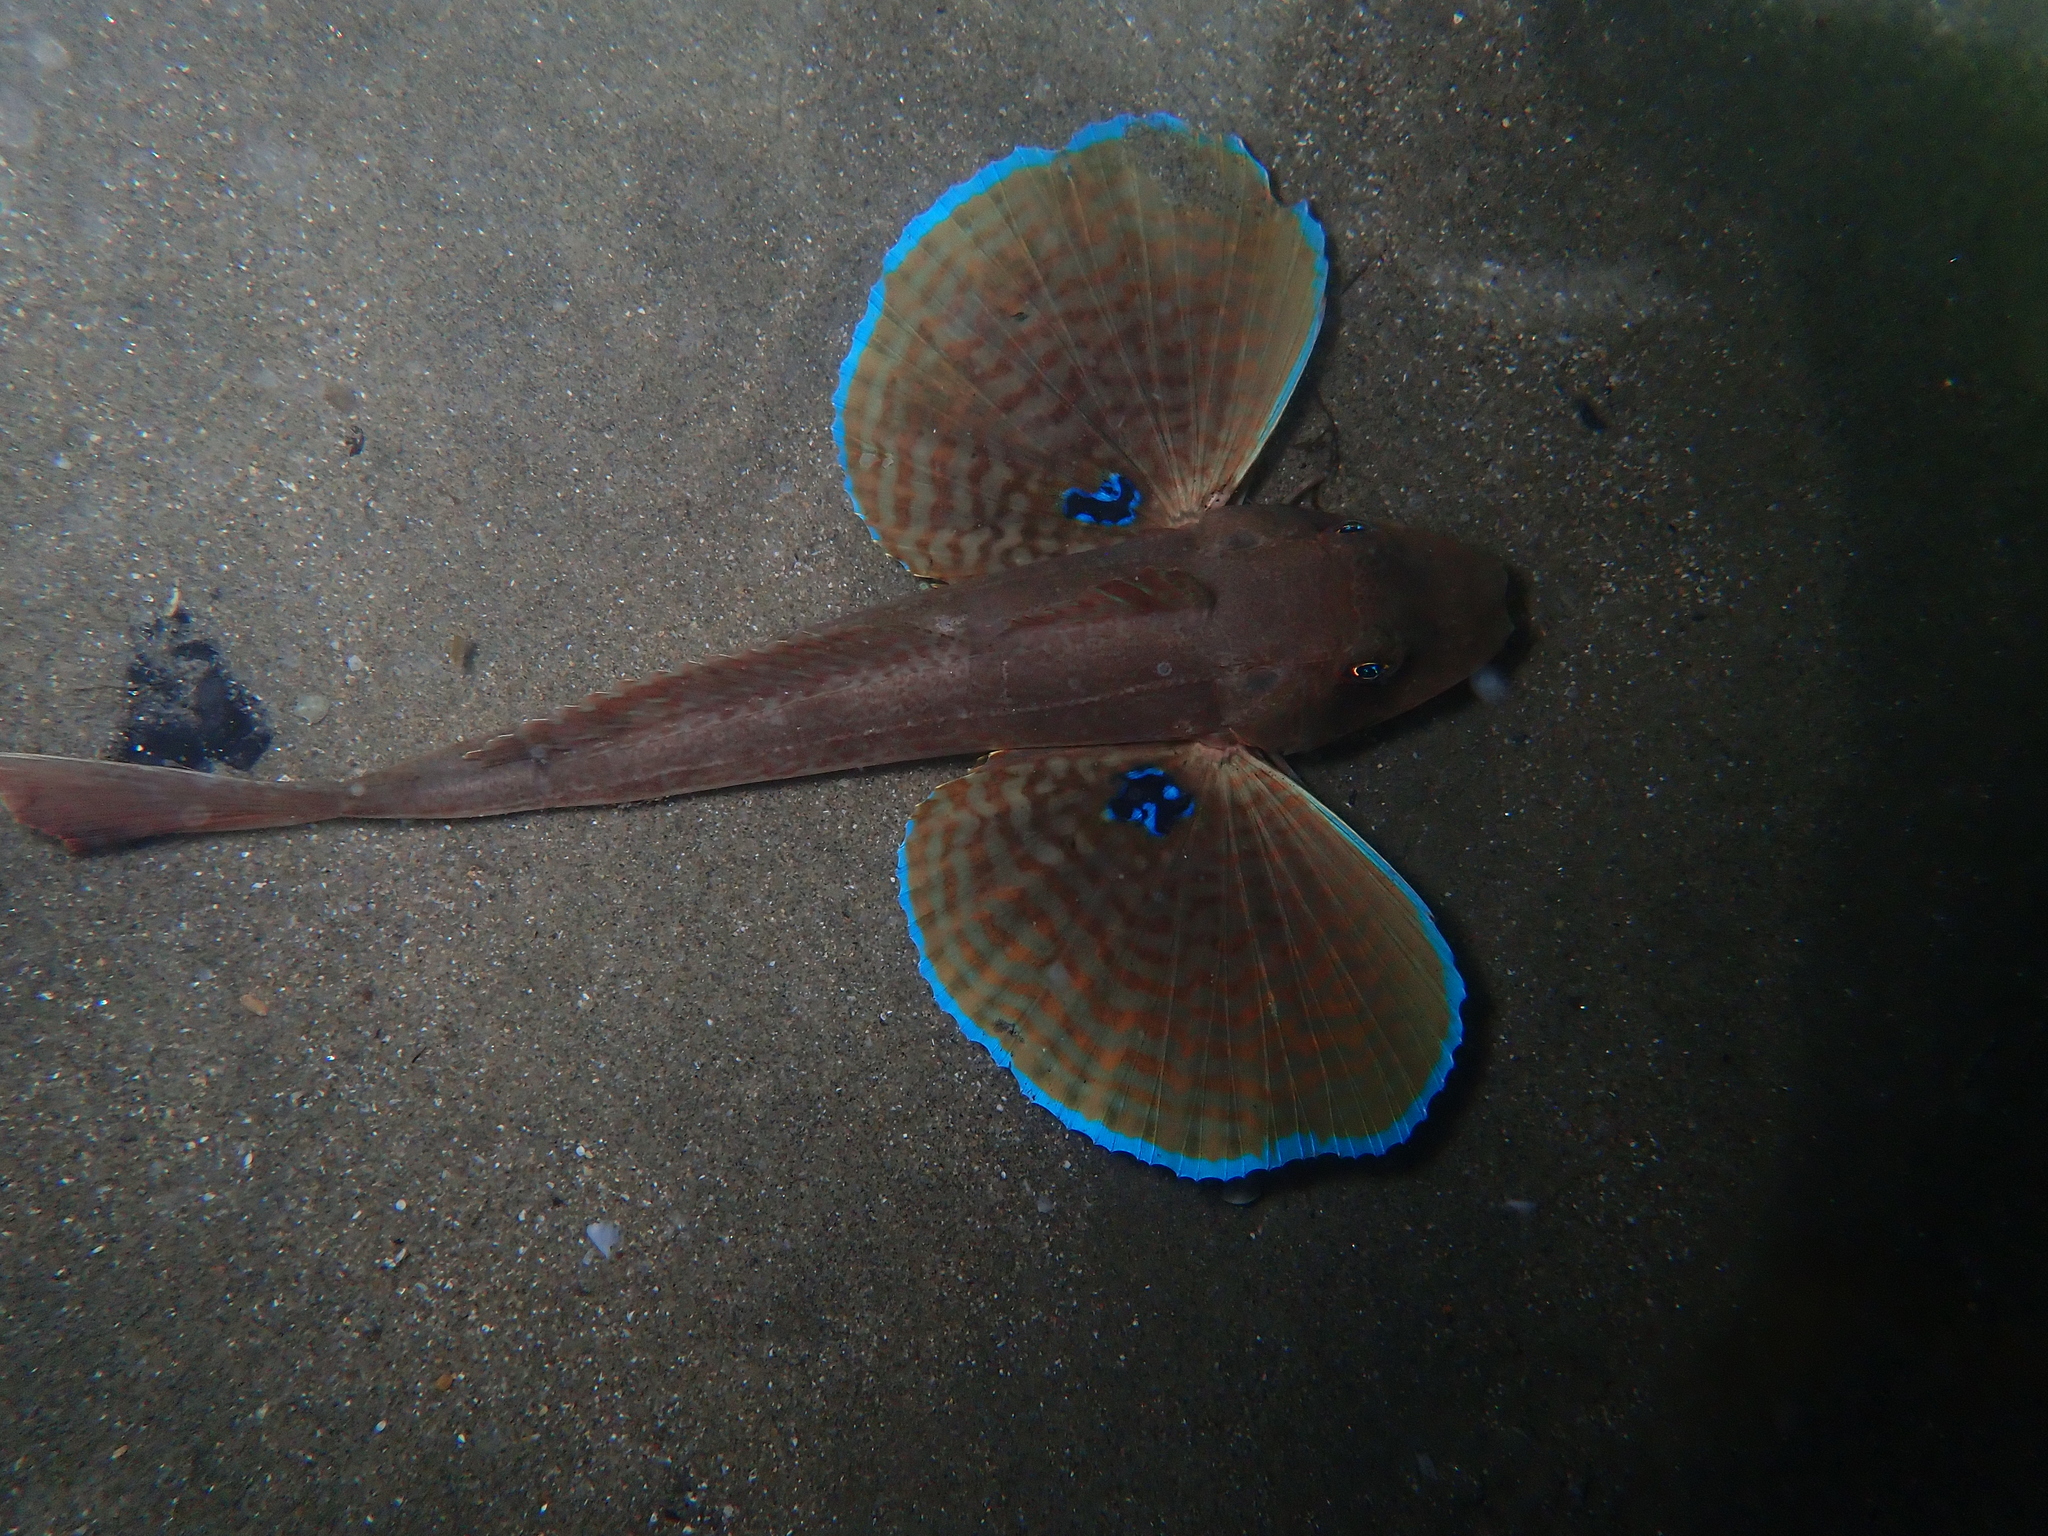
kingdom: Animalia
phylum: Chordata
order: Scorpaeniformes
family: Triglidae
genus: Chelidonichthys
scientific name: Chelidonichthys lucerna
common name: Tub gurnard
